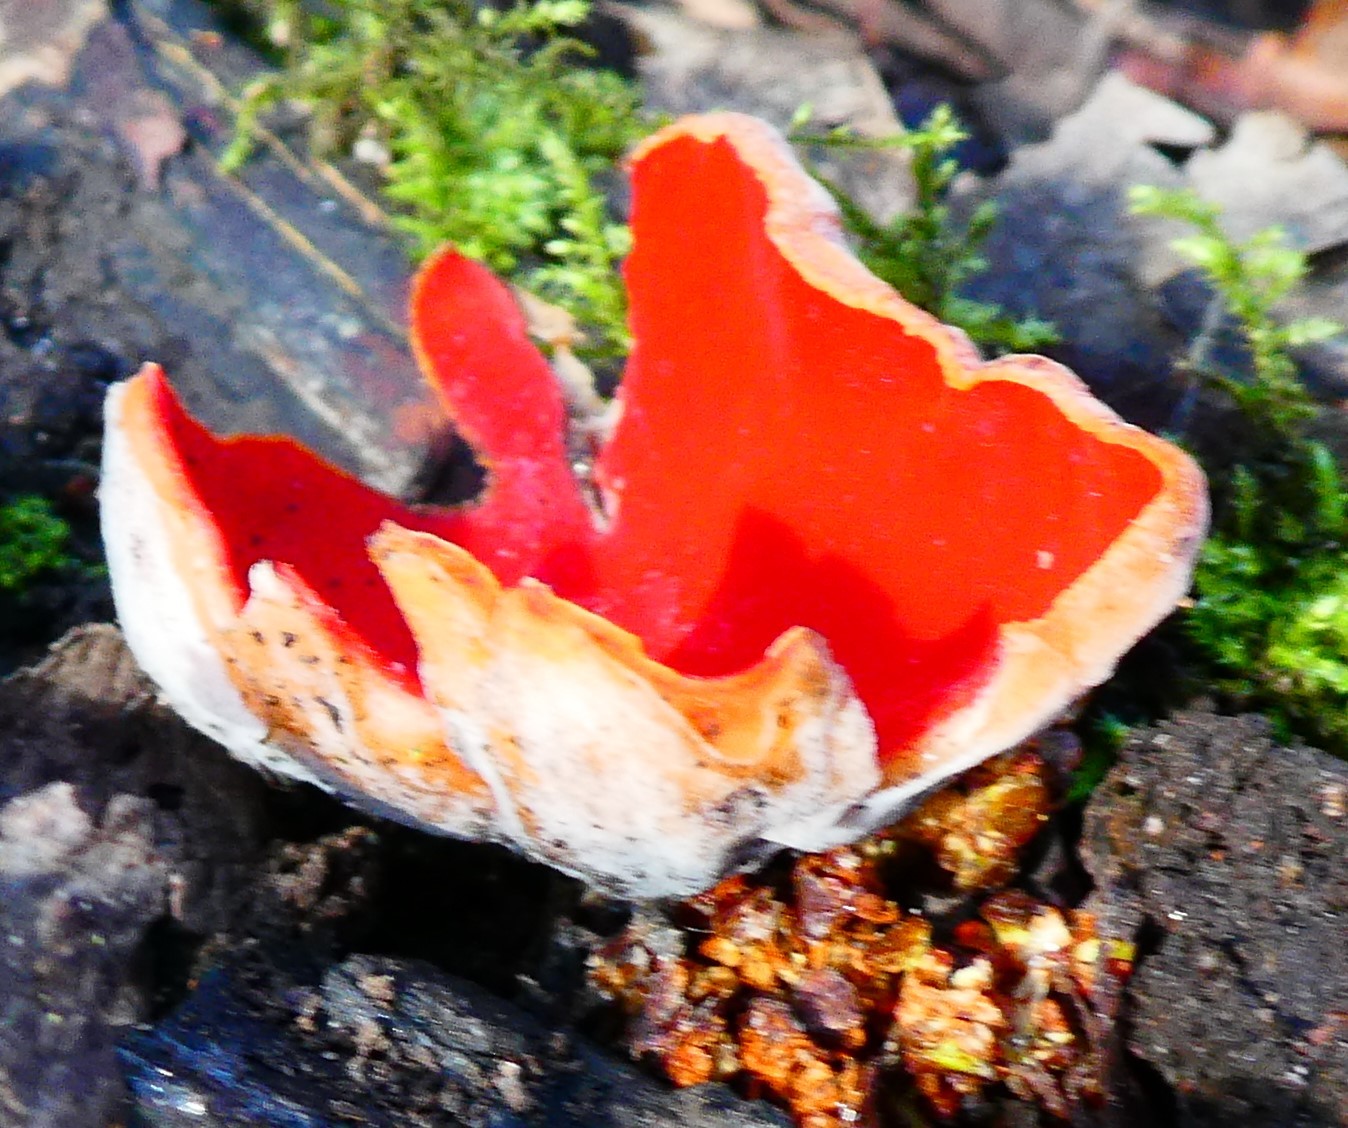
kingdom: Fungi
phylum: Ascomycota
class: Pezizomycetes
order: Pezizales
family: Sarcoscyphaceae
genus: Sarcoscypha
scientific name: Sarcoscypha
